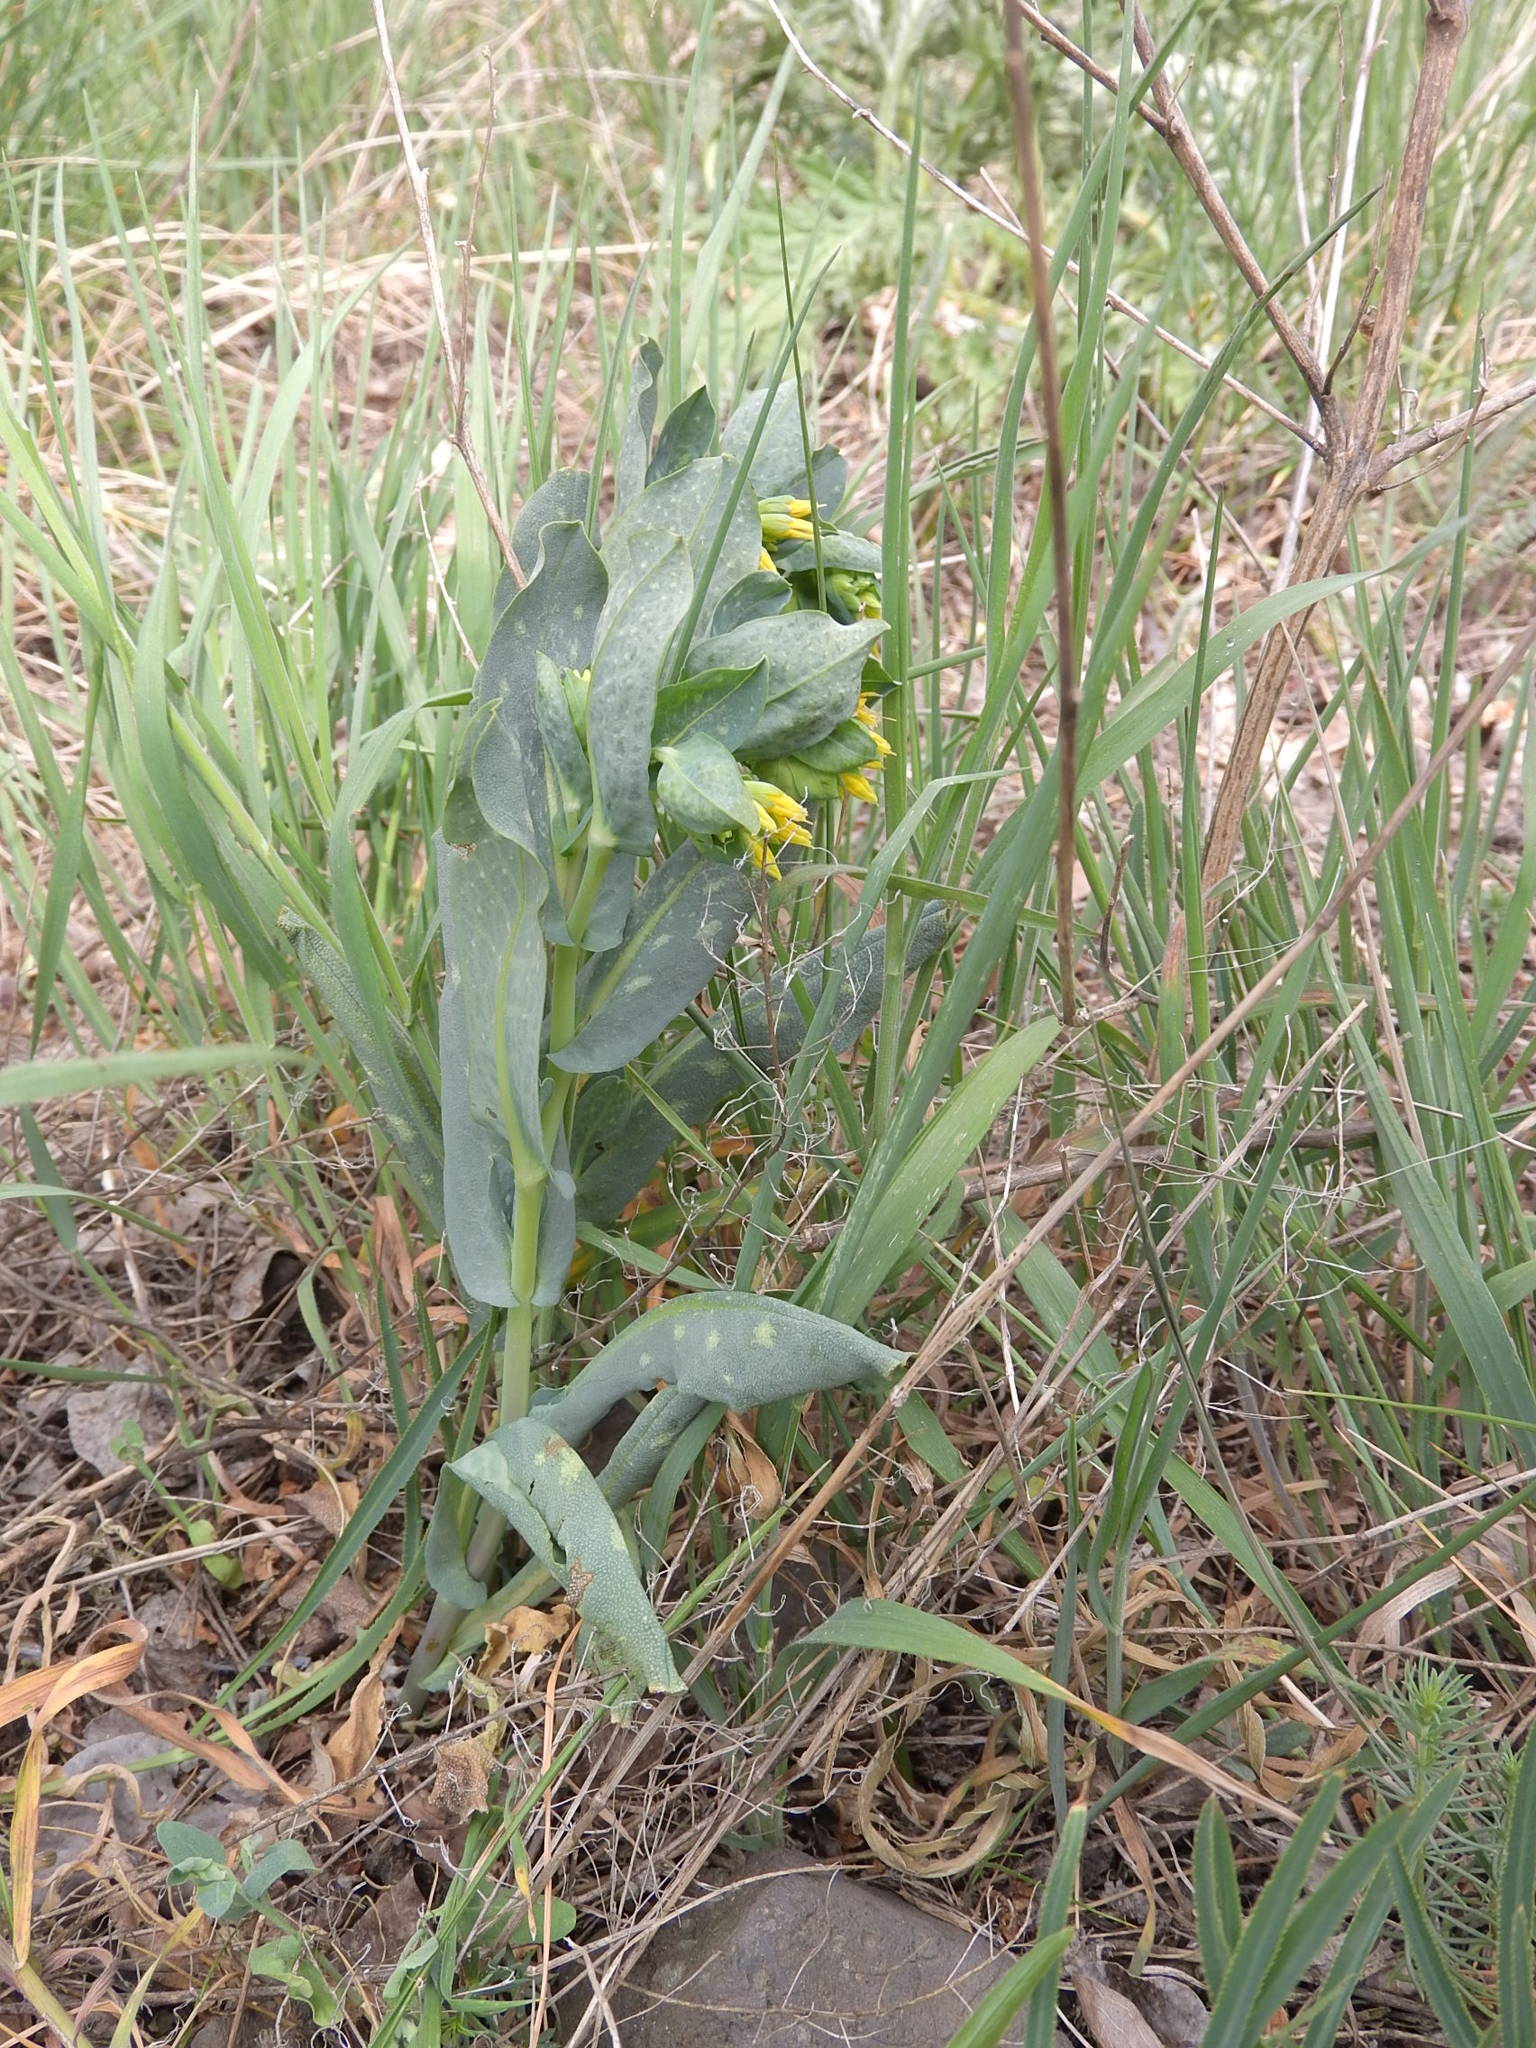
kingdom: Plantae
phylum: Tracheophyta
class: Magnoliopsida
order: Boraginales
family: Boraginaceae
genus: Cerinthe
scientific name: Cerinthe minor
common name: Lesser honeywort
